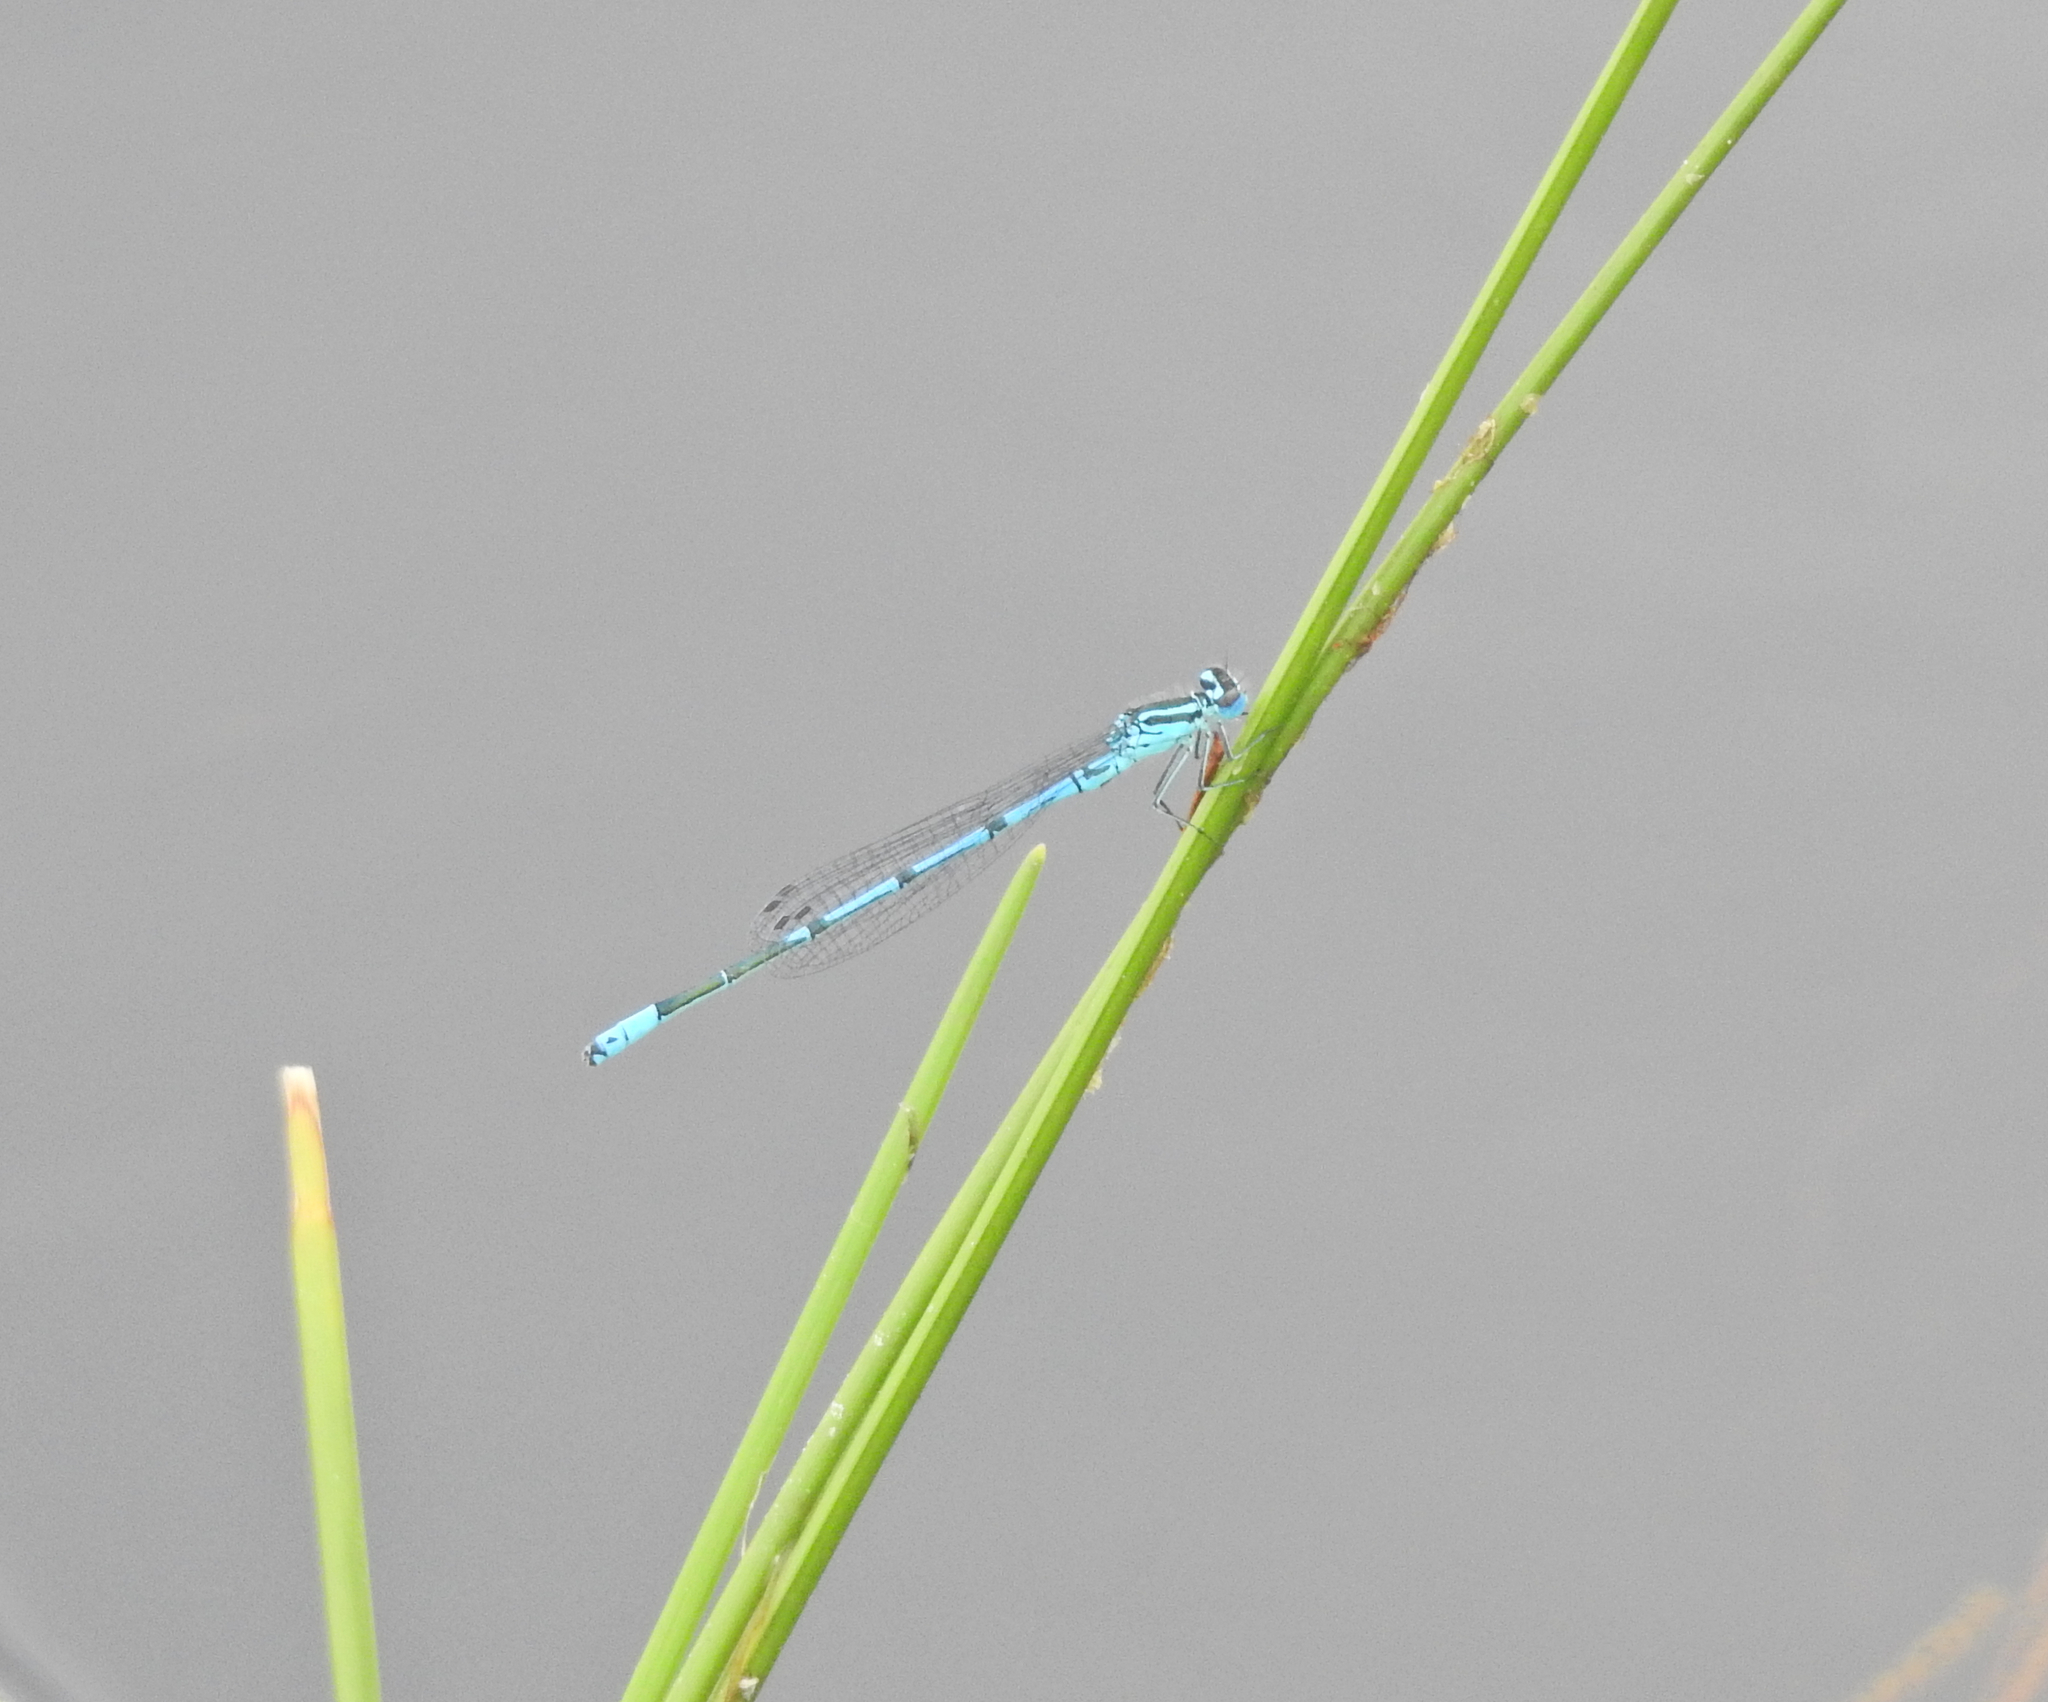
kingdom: Animalia
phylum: Arthropoda
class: Insecta
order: Odonata
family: Coenagrionidae
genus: Coenagrion
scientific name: Coenagrion puella
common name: Azure damselfly
